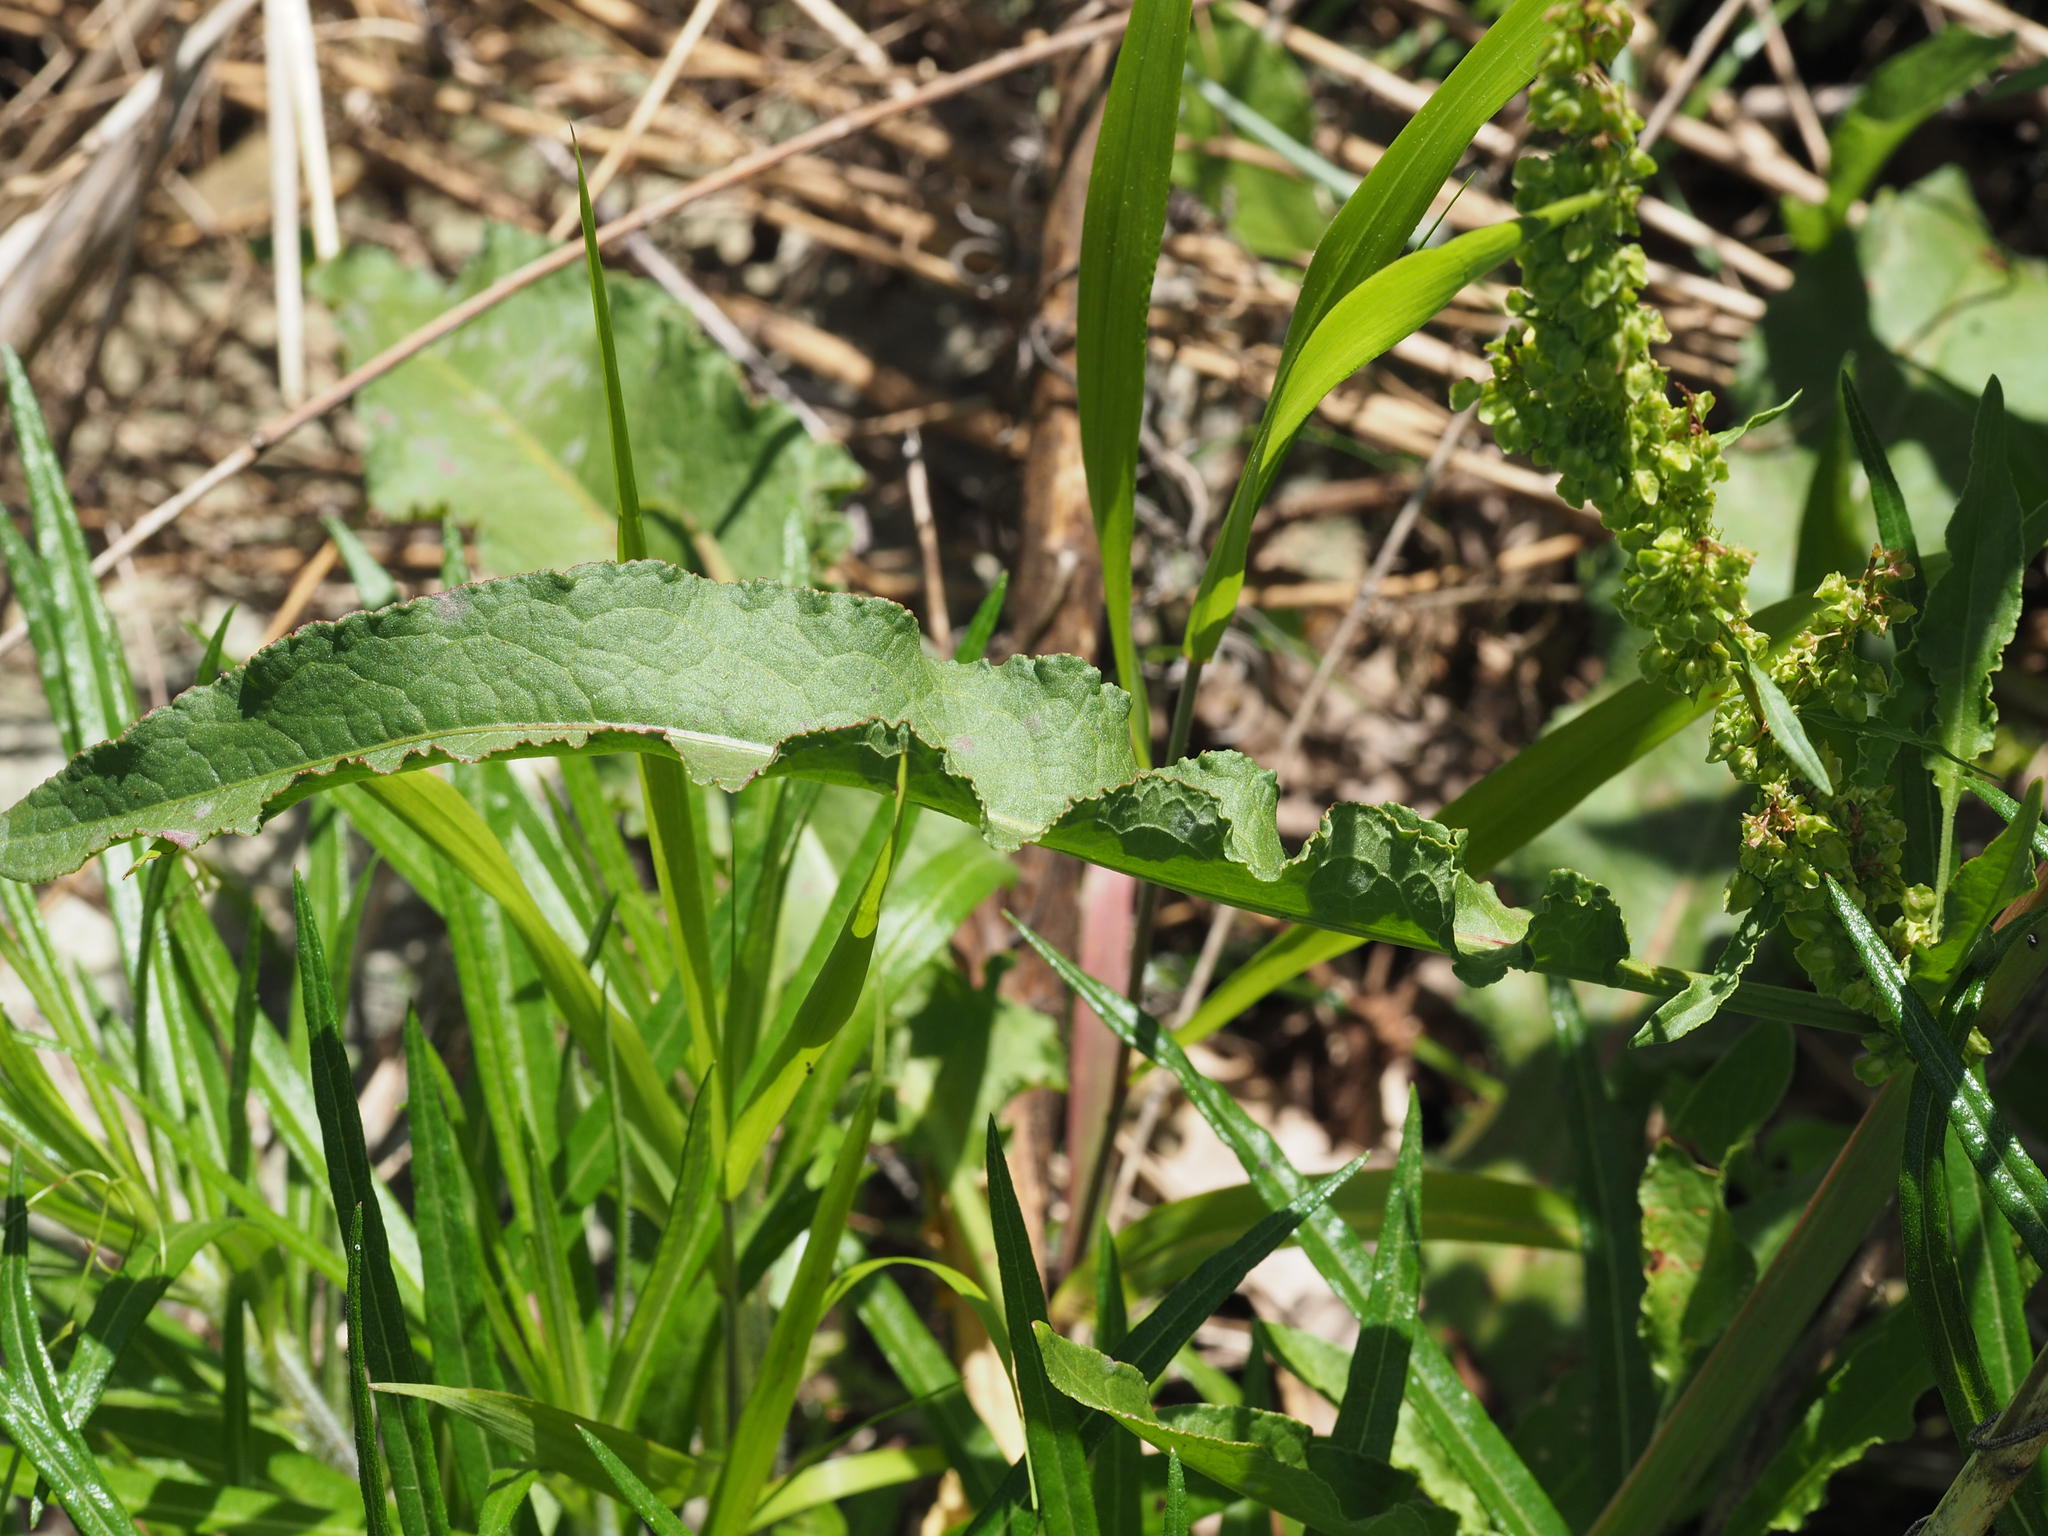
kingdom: Plantae
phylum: Tracheophyta
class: Magnoliopsida
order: Caryophyllales
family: Polygonaceae
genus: Rumex
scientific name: Rumex crispus
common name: Curled dock
